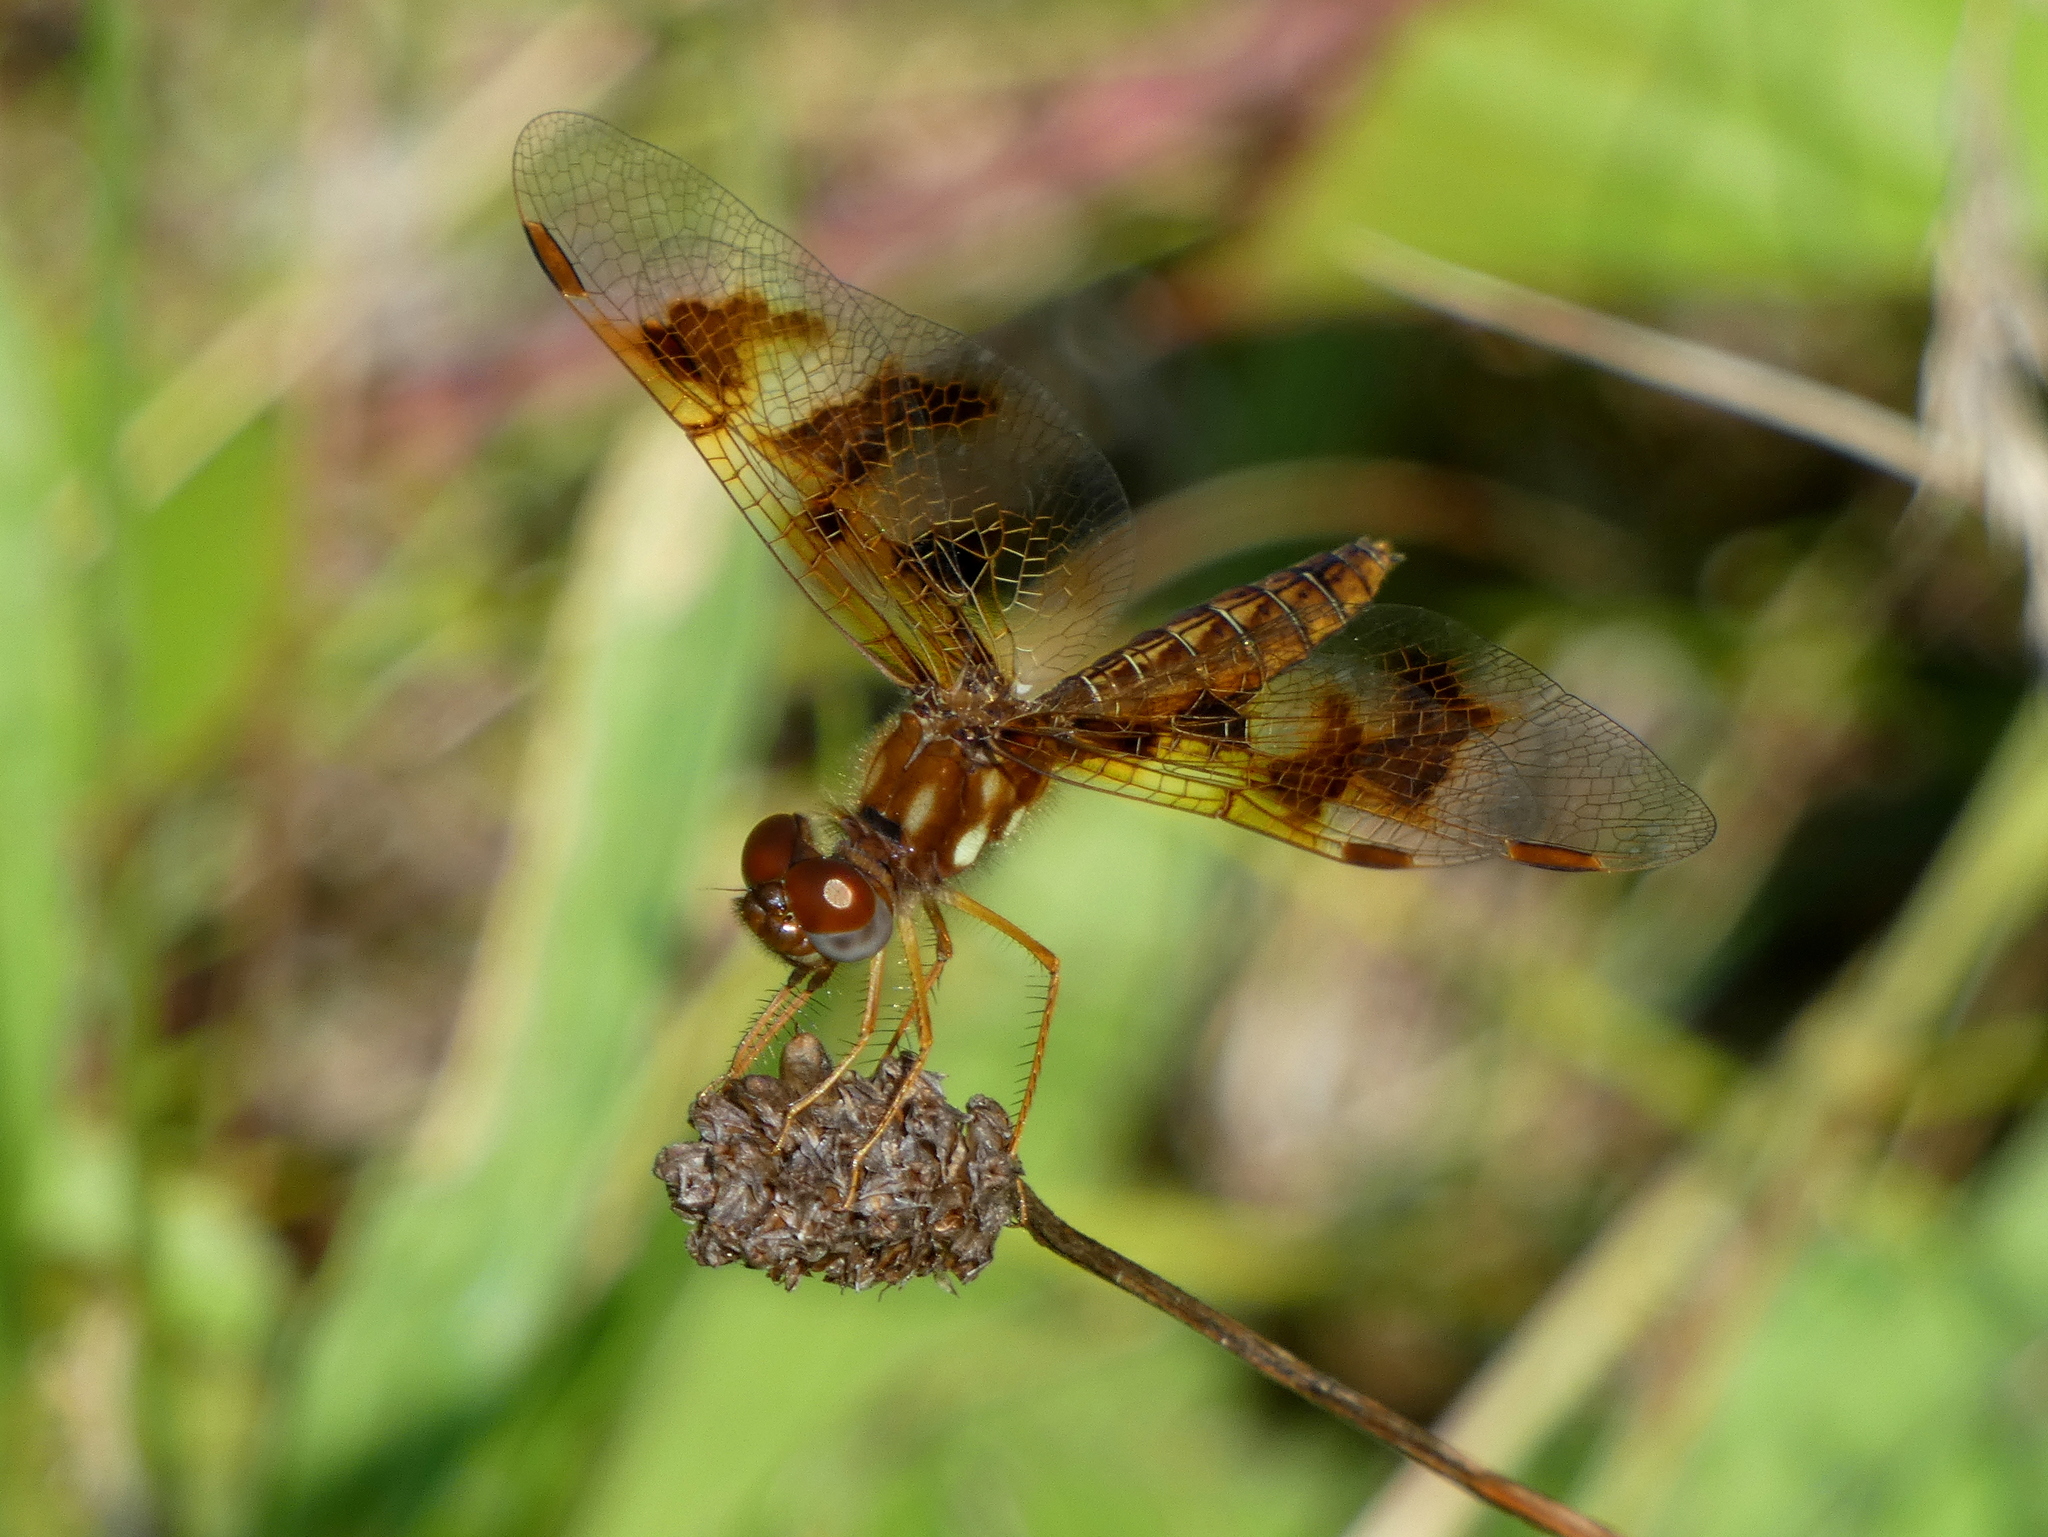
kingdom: Animalia
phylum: Arthropoda
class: Insecta
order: Odonata
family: Libellulidae
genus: Perithemis
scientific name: Perithemis tenera
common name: Eastern amberwing
